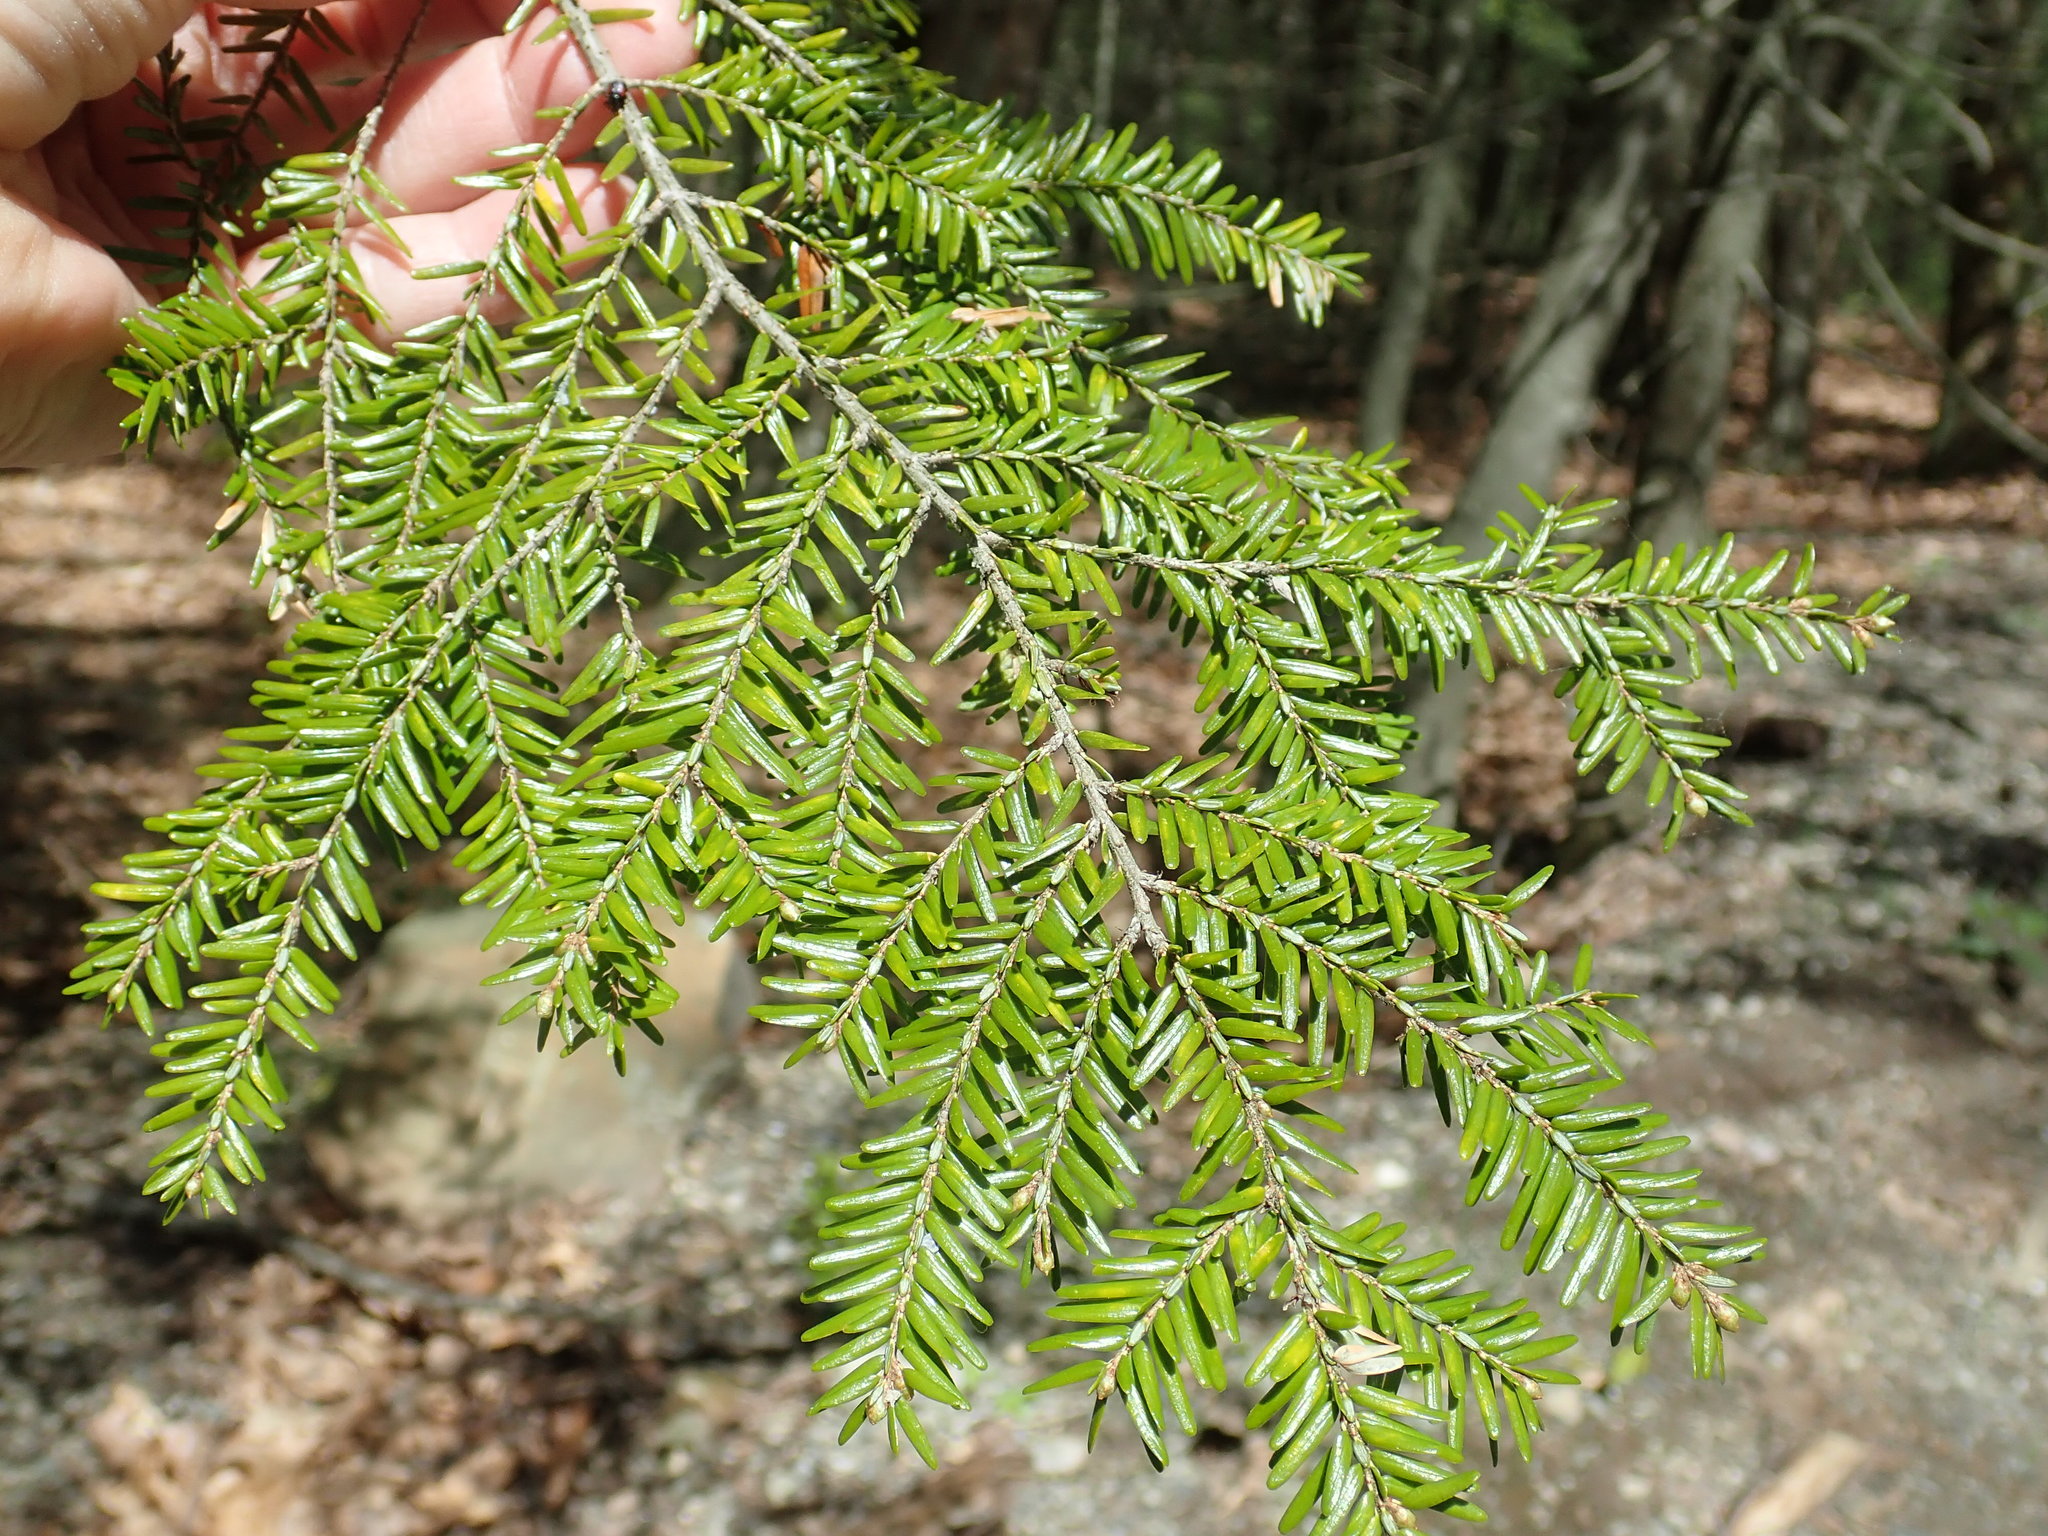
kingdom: Plantae
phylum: Tracheophyta
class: Pinopsida
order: Pinales
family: Pinaceae
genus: Tsuga
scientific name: Tsuga canadensis
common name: Eastern hemlock
